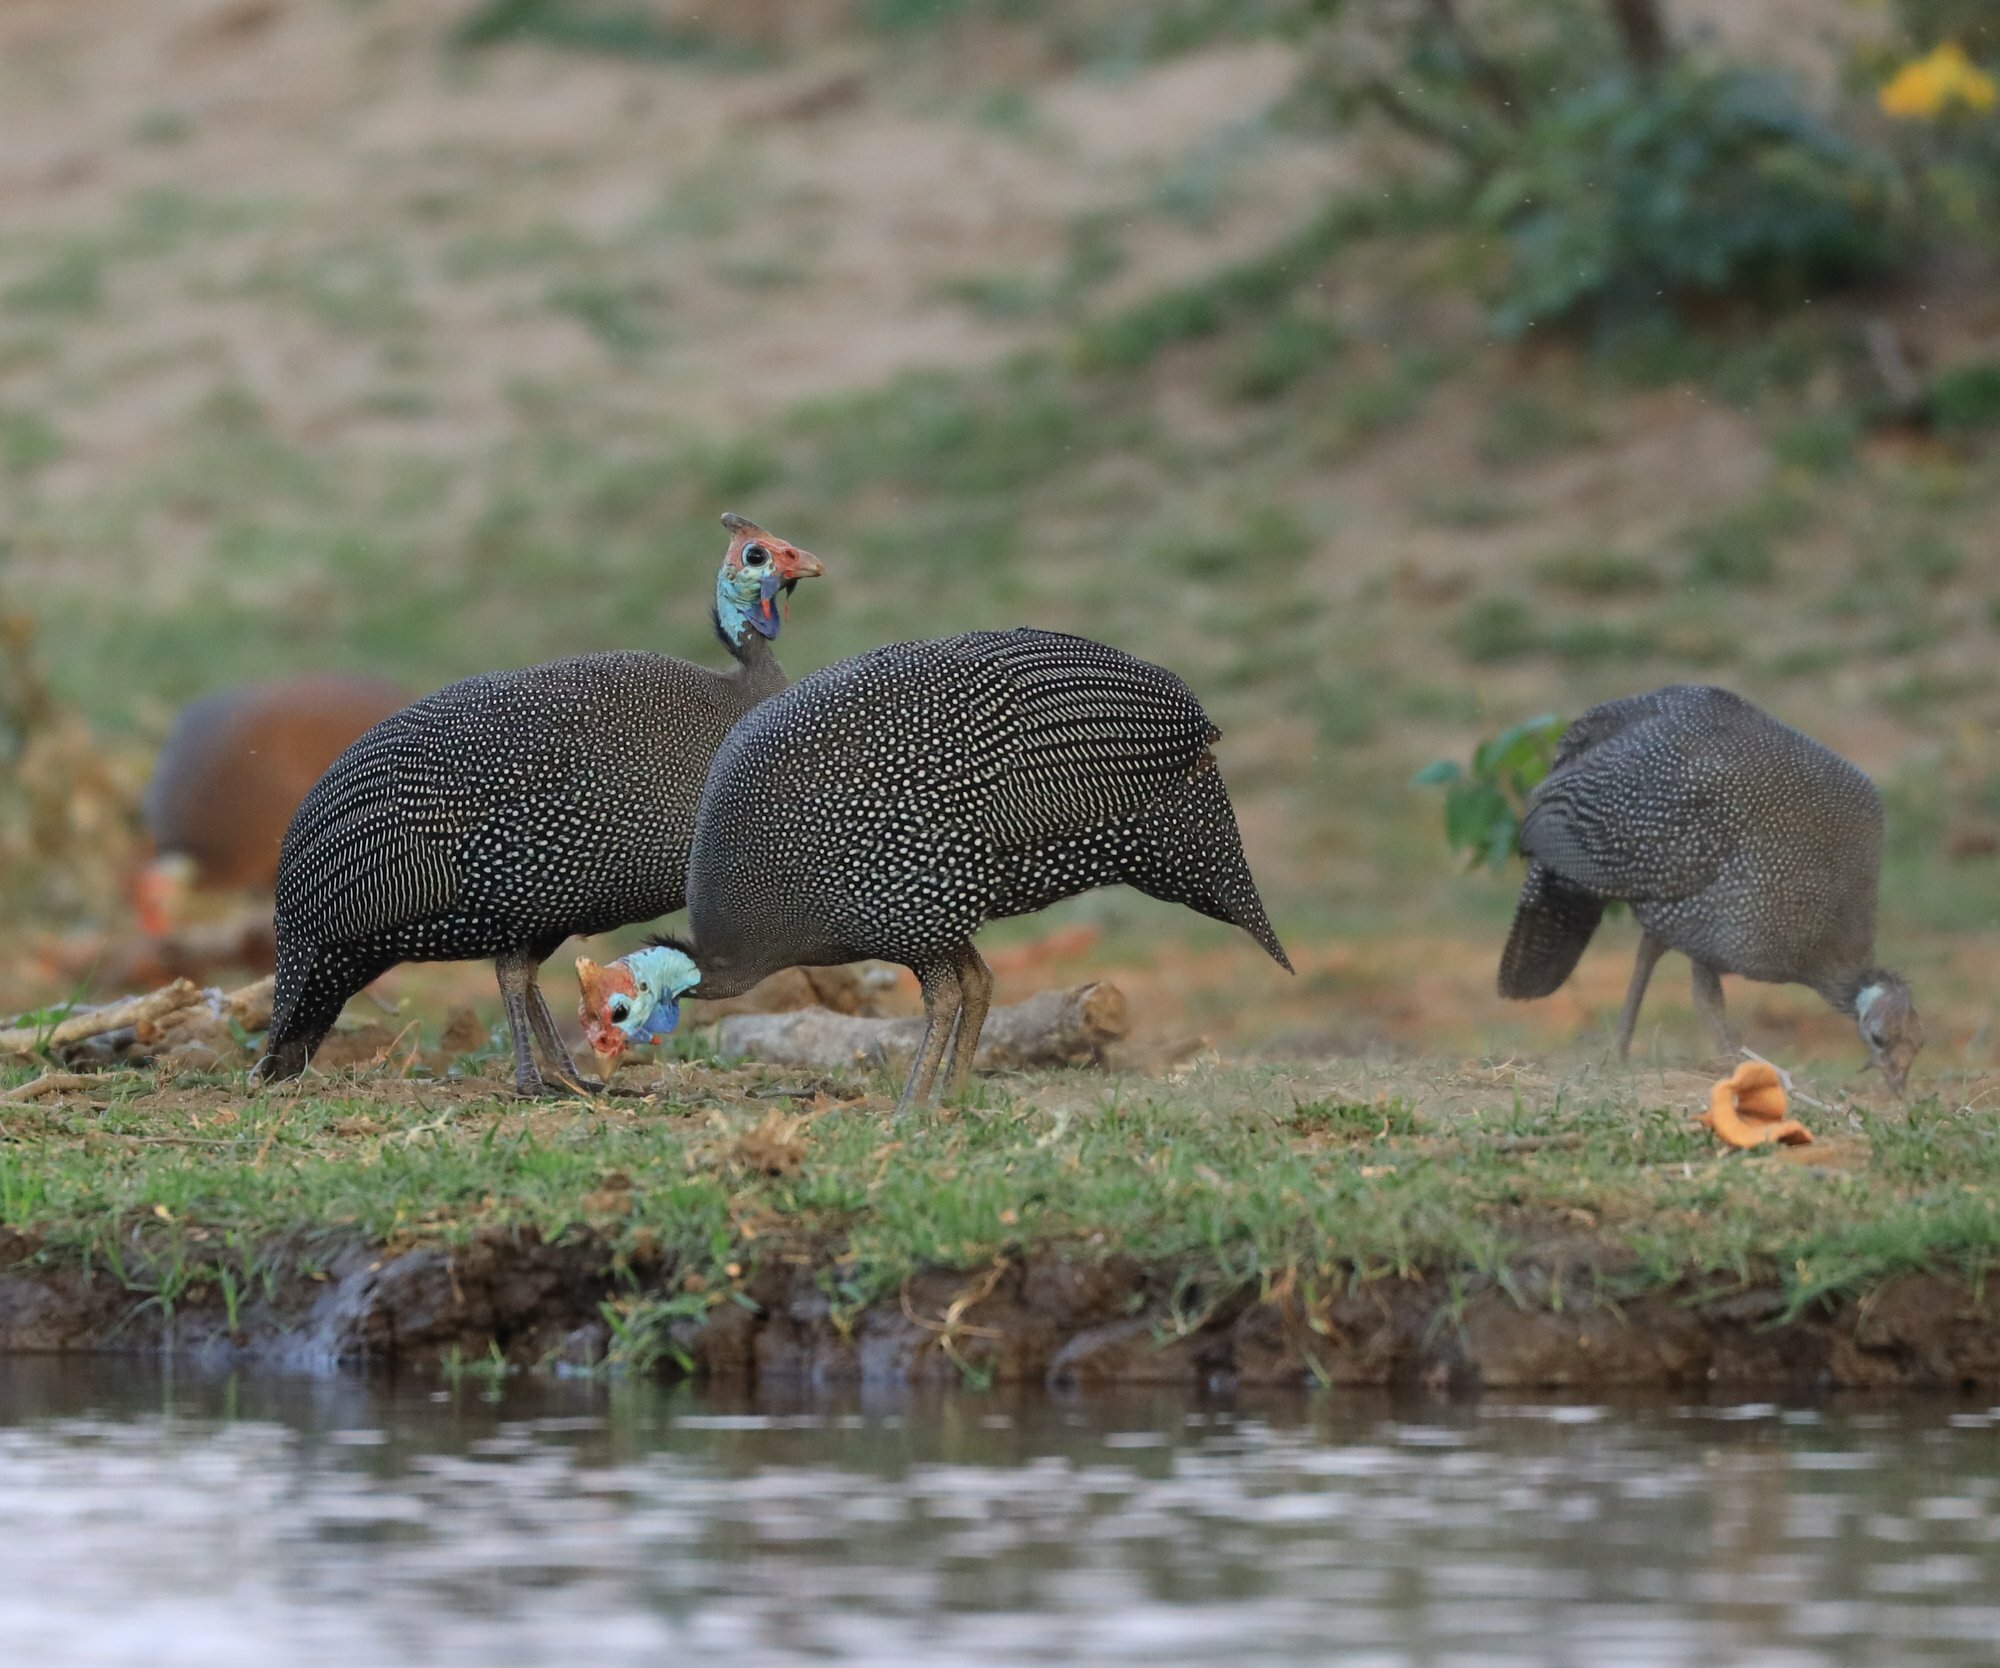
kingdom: Animalia
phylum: Chordata
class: Aves
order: Galliformes
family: Numididae
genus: Numida
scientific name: Numida meleagris
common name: Helmeted guineafowl
